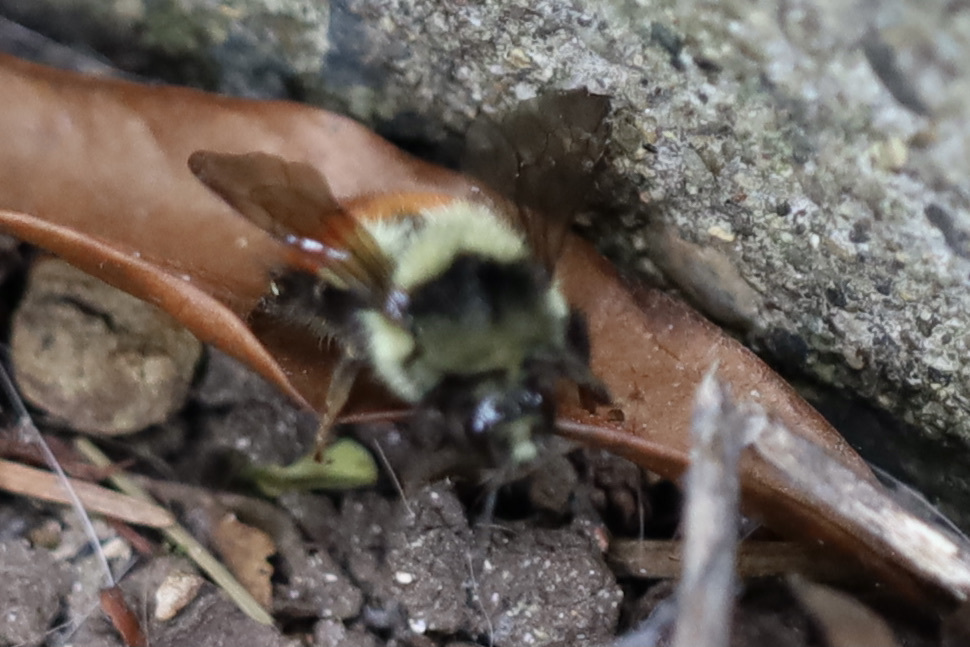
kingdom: Animalia
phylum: Arthropoda
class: Insecta
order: Hymenoptera
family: Apidae
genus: Bombus
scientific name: Bombus melanopygus
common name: Black tail bumble bee
